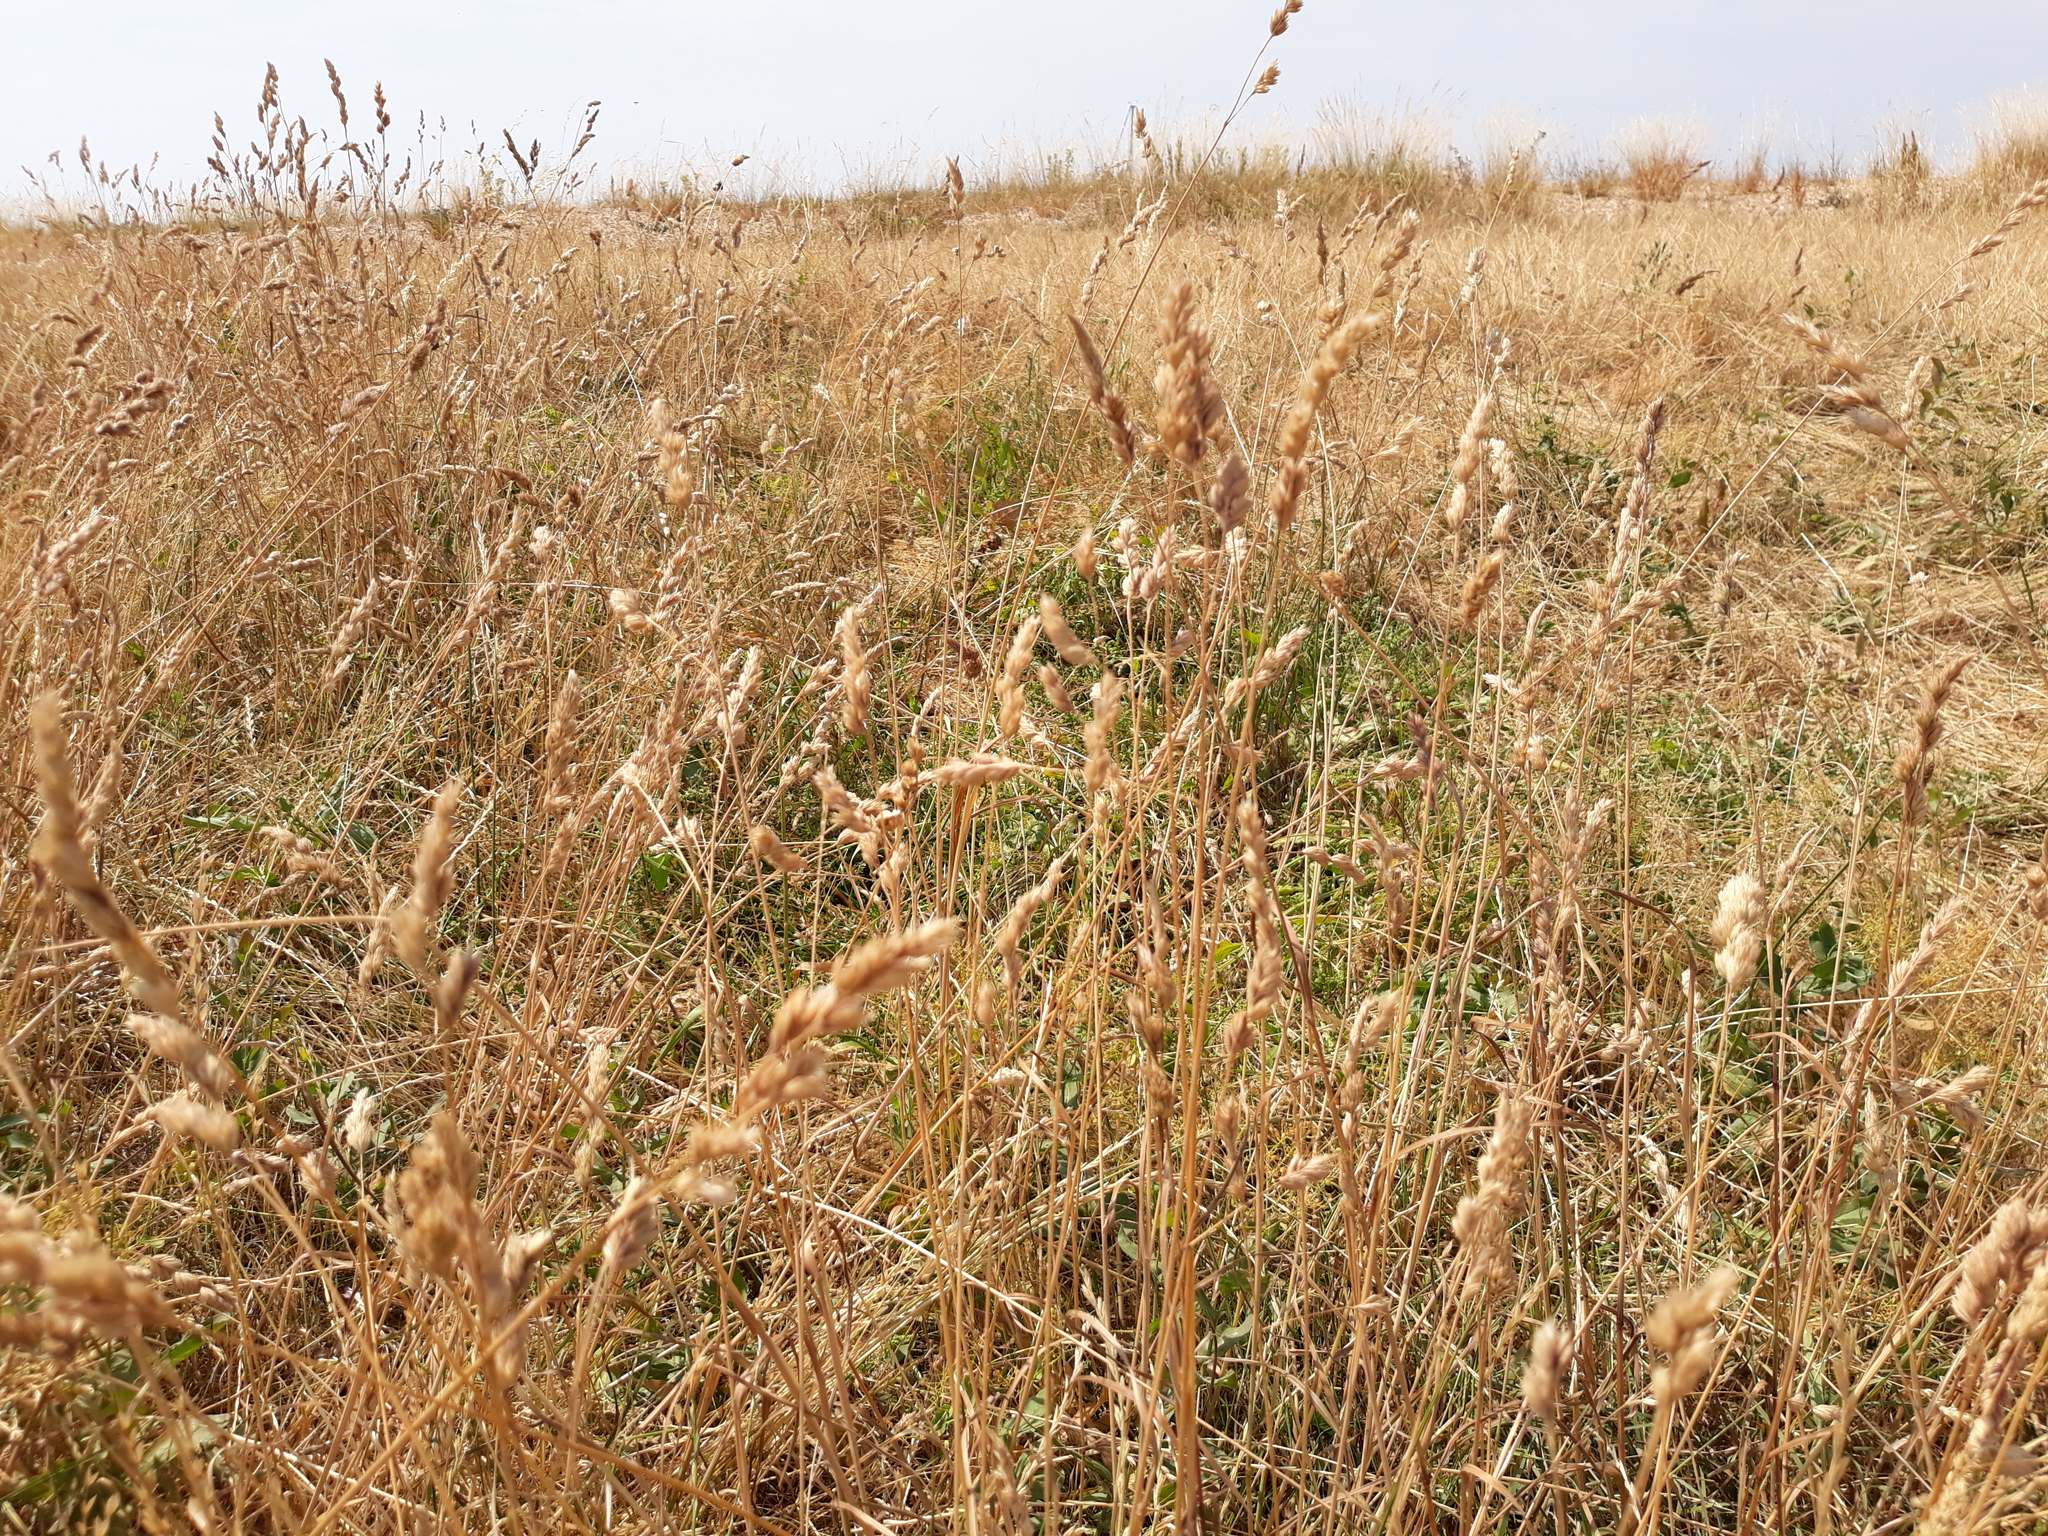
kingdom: Plantae
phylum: Tracheophyta
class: Liliopsida
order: Poales
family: Poaceae
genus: Dactylis
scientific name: Dactylis glomerata
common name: Orchardgrass
